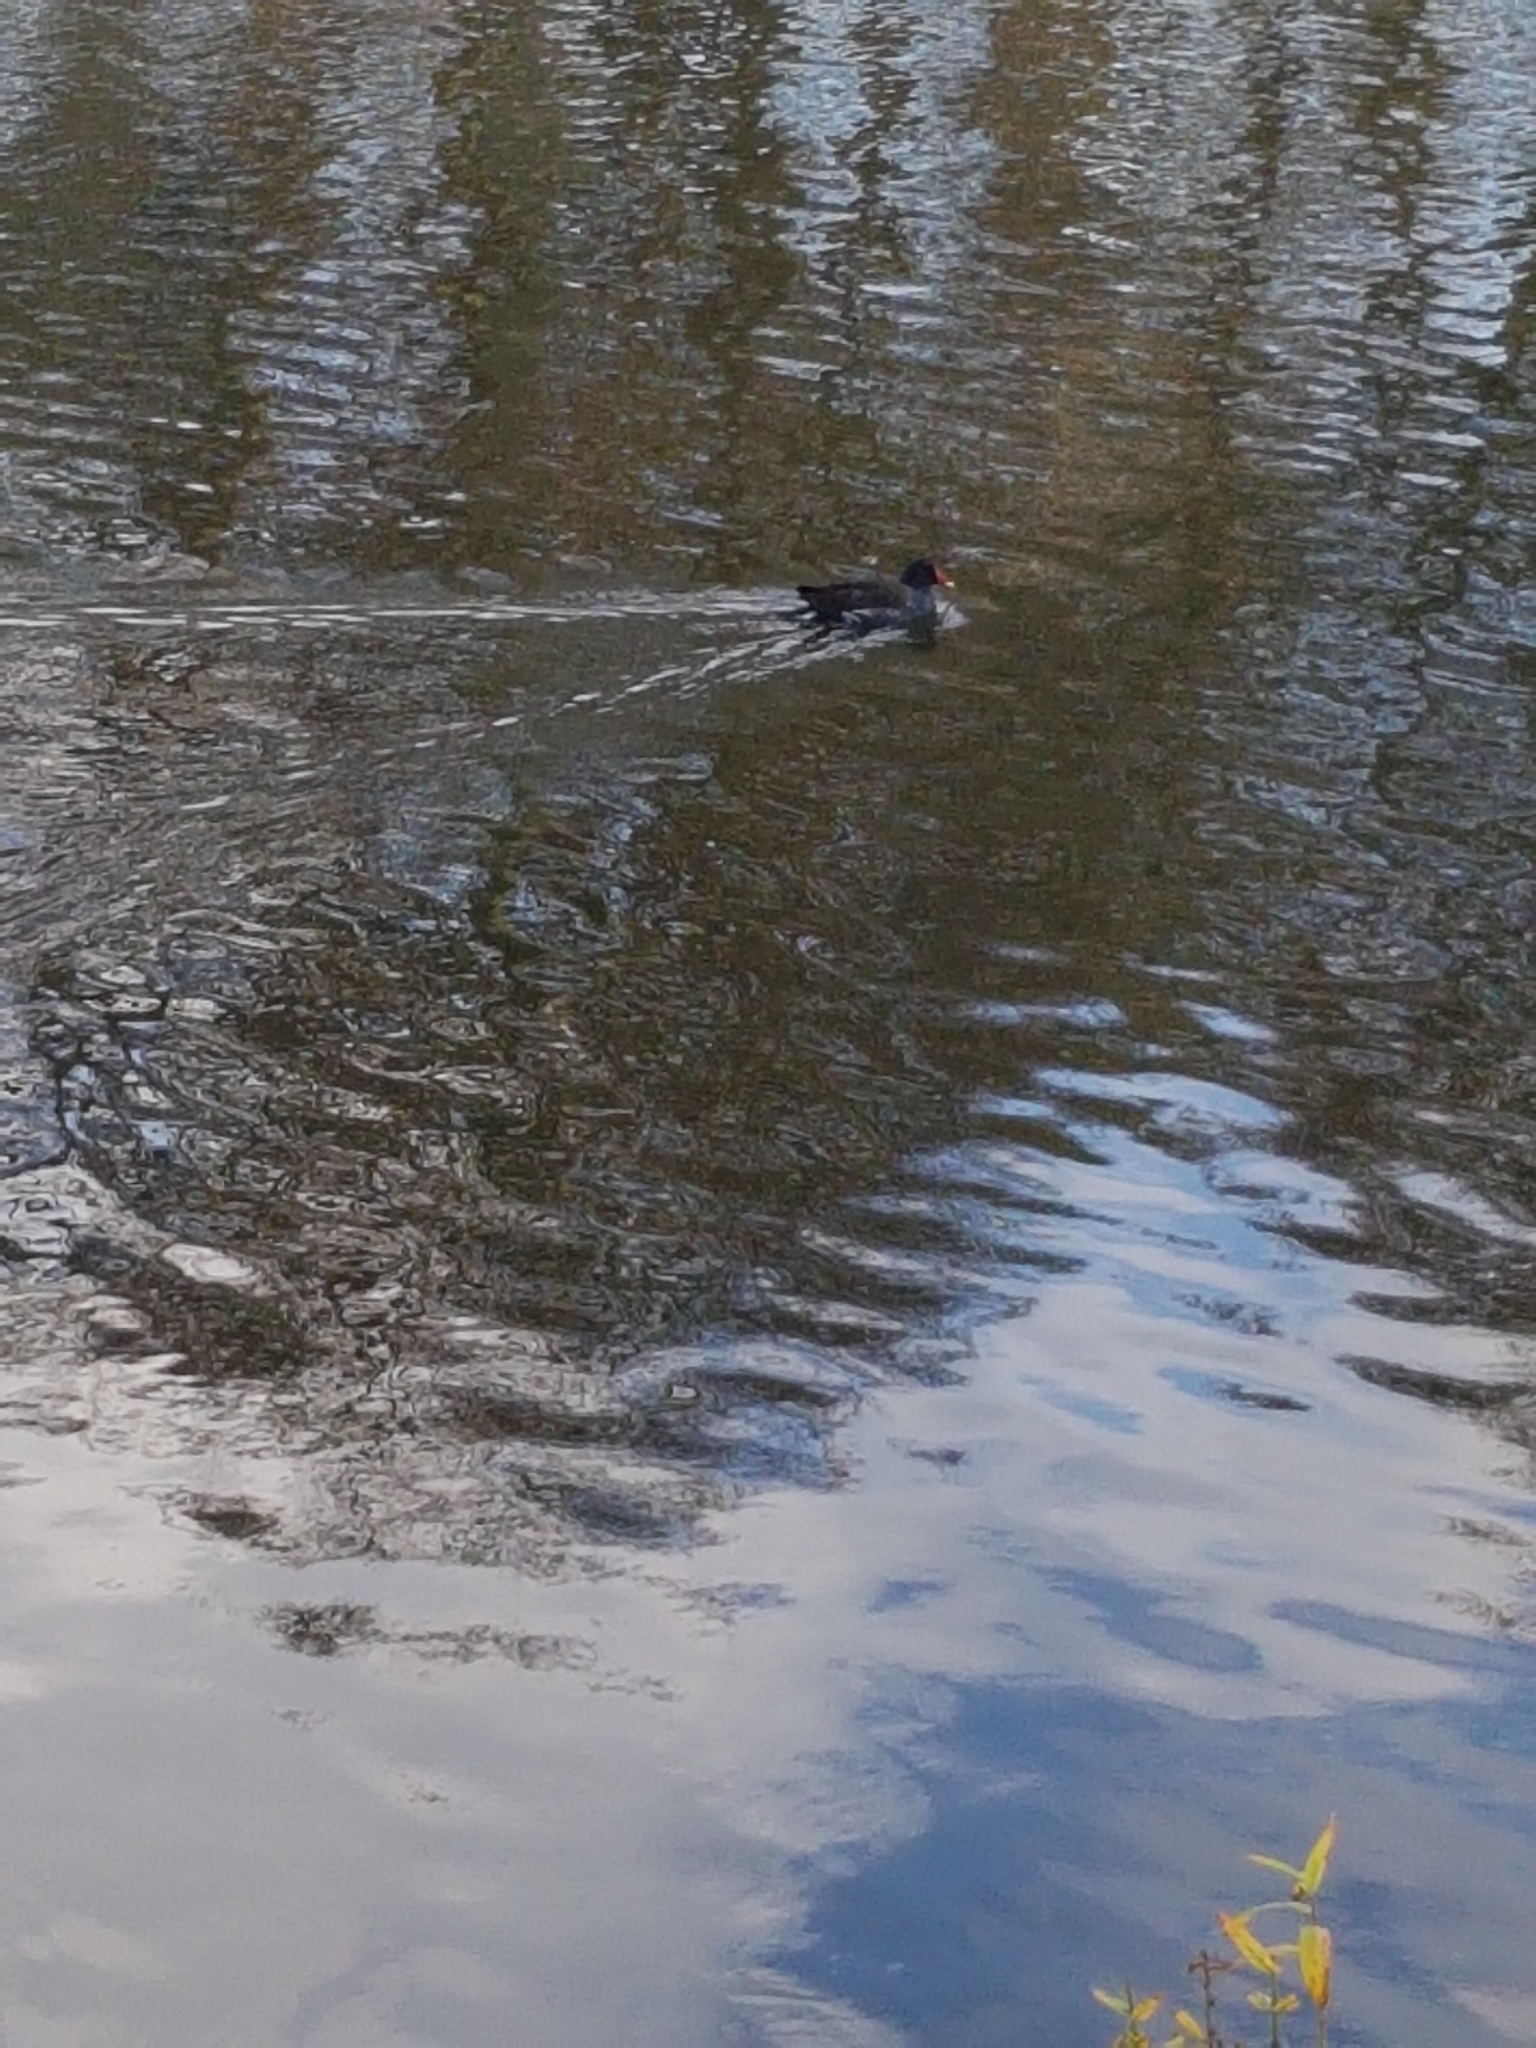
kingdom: Animalia
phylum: Chordata
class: Aves
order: Gruiformes
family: Rallidae
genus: Gallinula
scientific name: Gallinula chloropus
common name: Common moorhen
